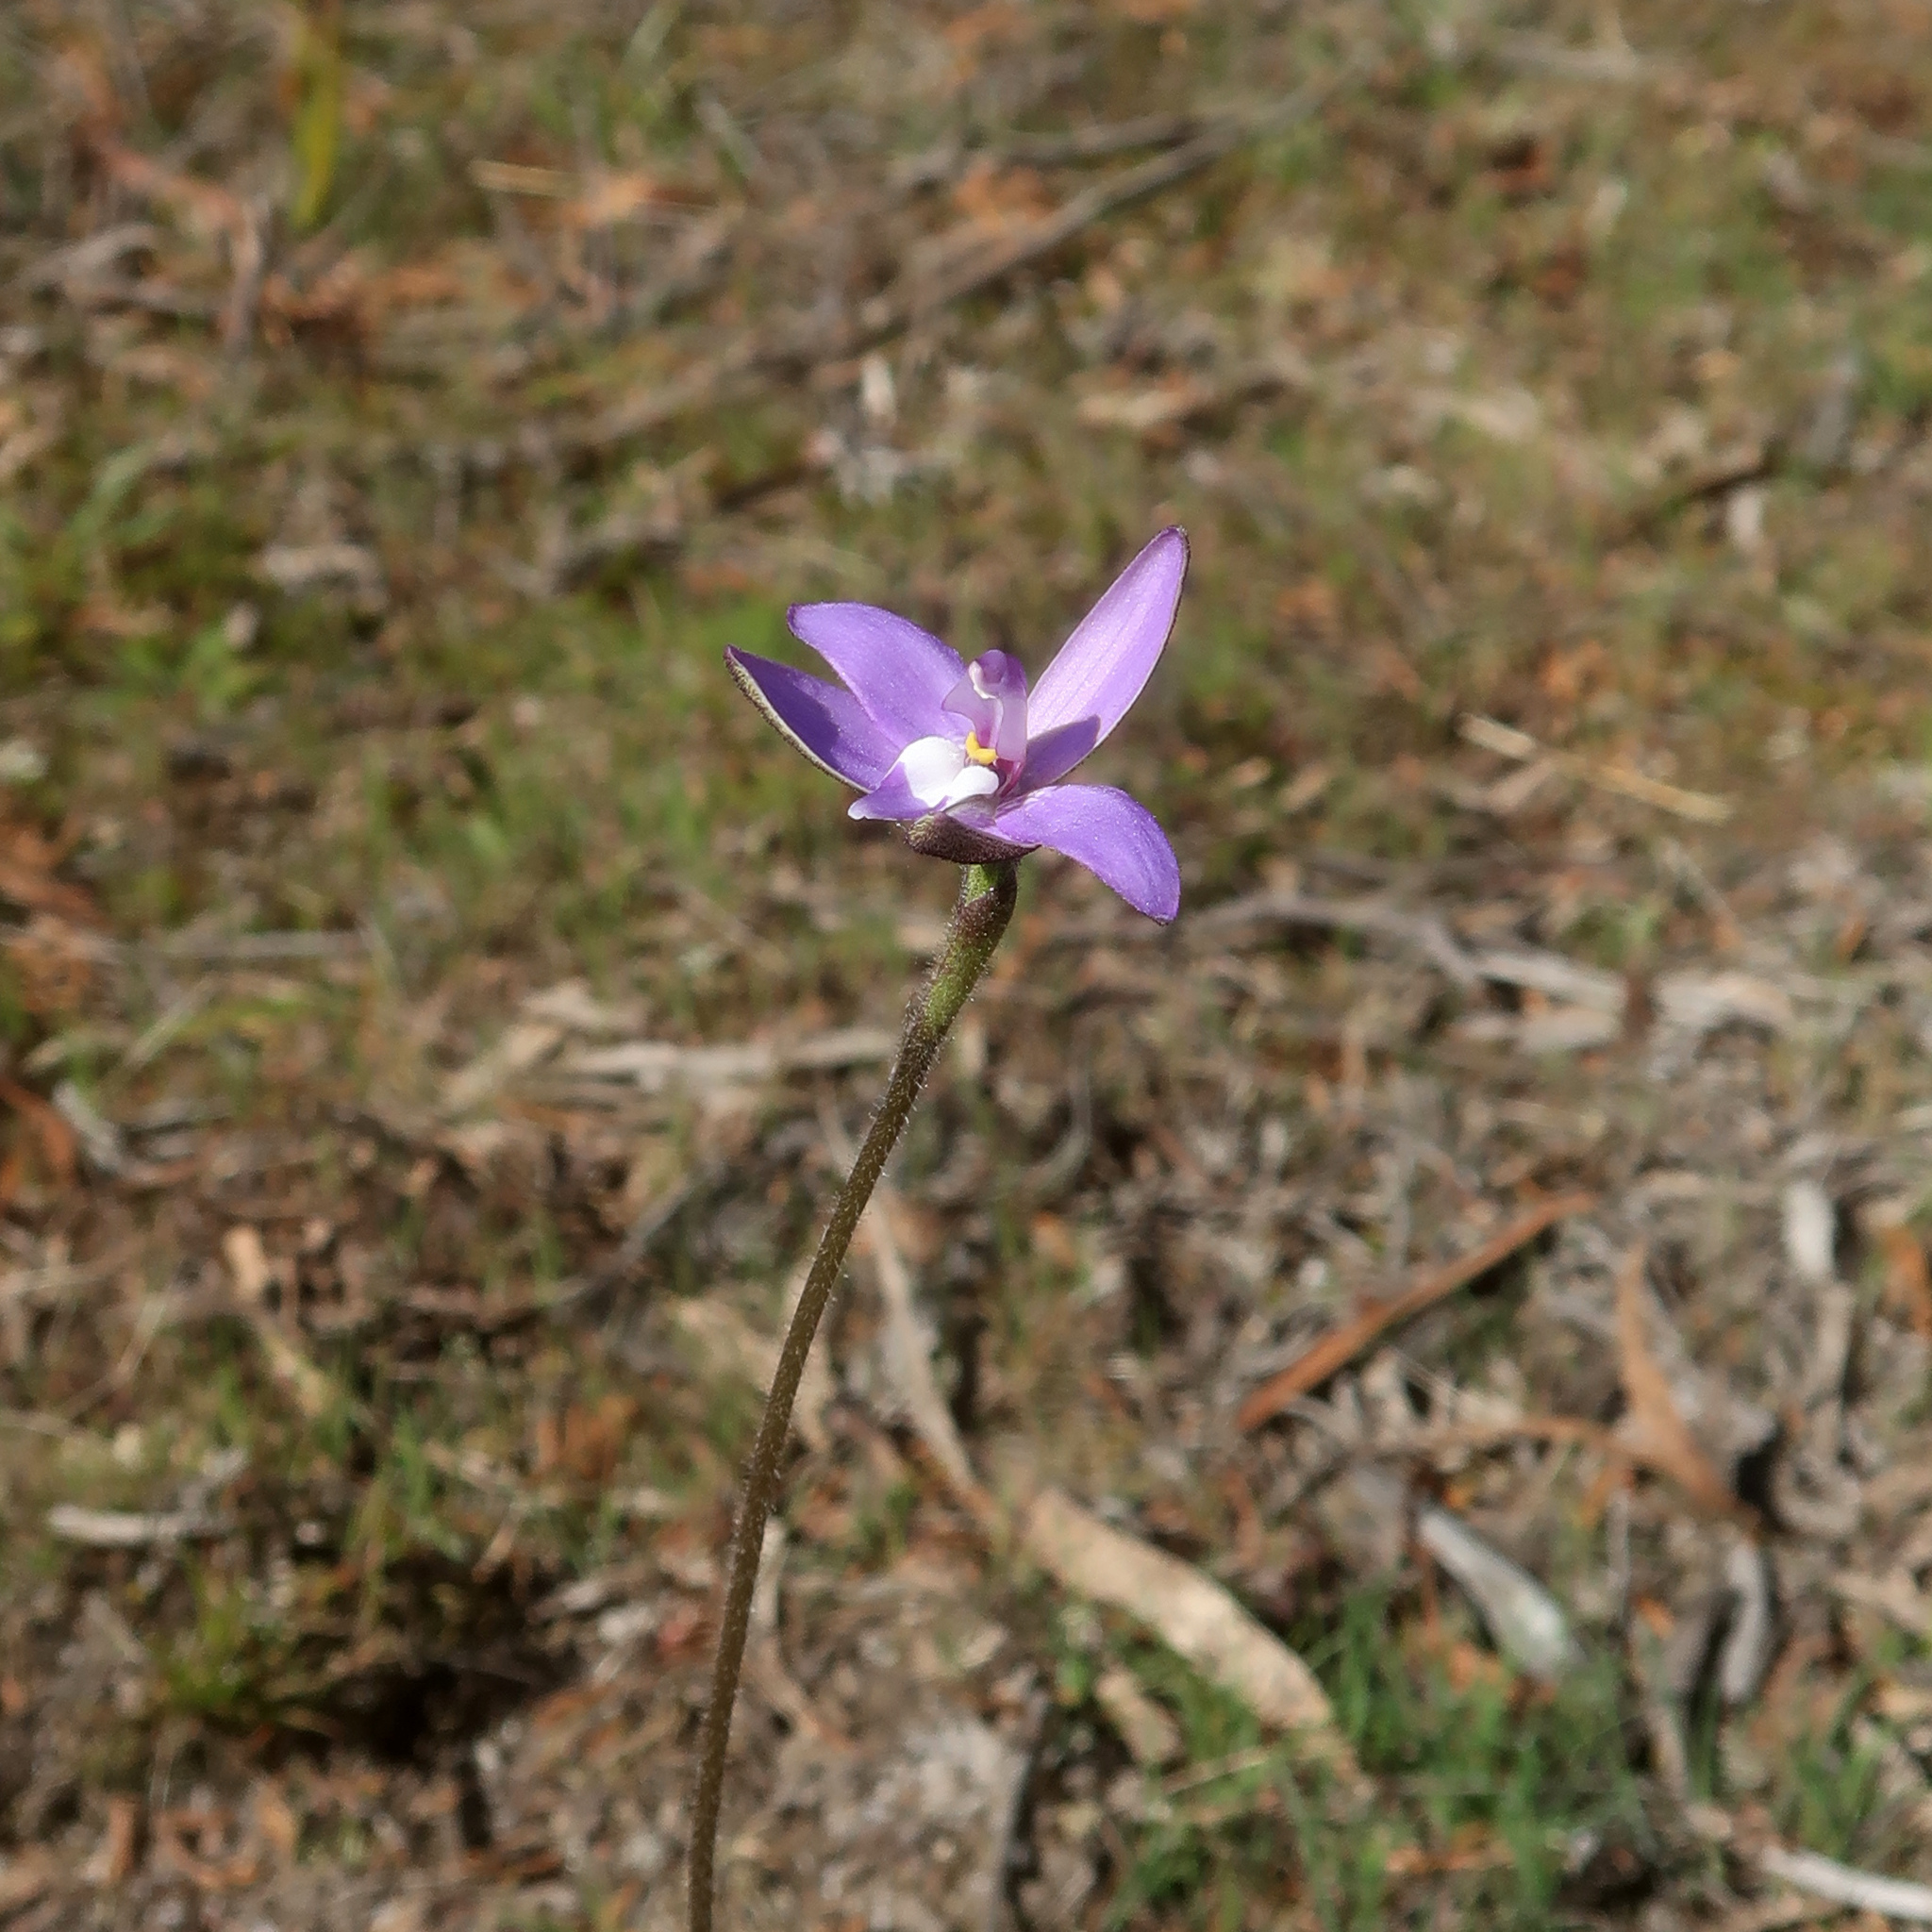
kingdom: Plantae
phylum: Tracheophyta
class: Liliopsida
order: Asparagales
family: Orchidaceae
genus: Caladenia
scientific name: Caladenia major
